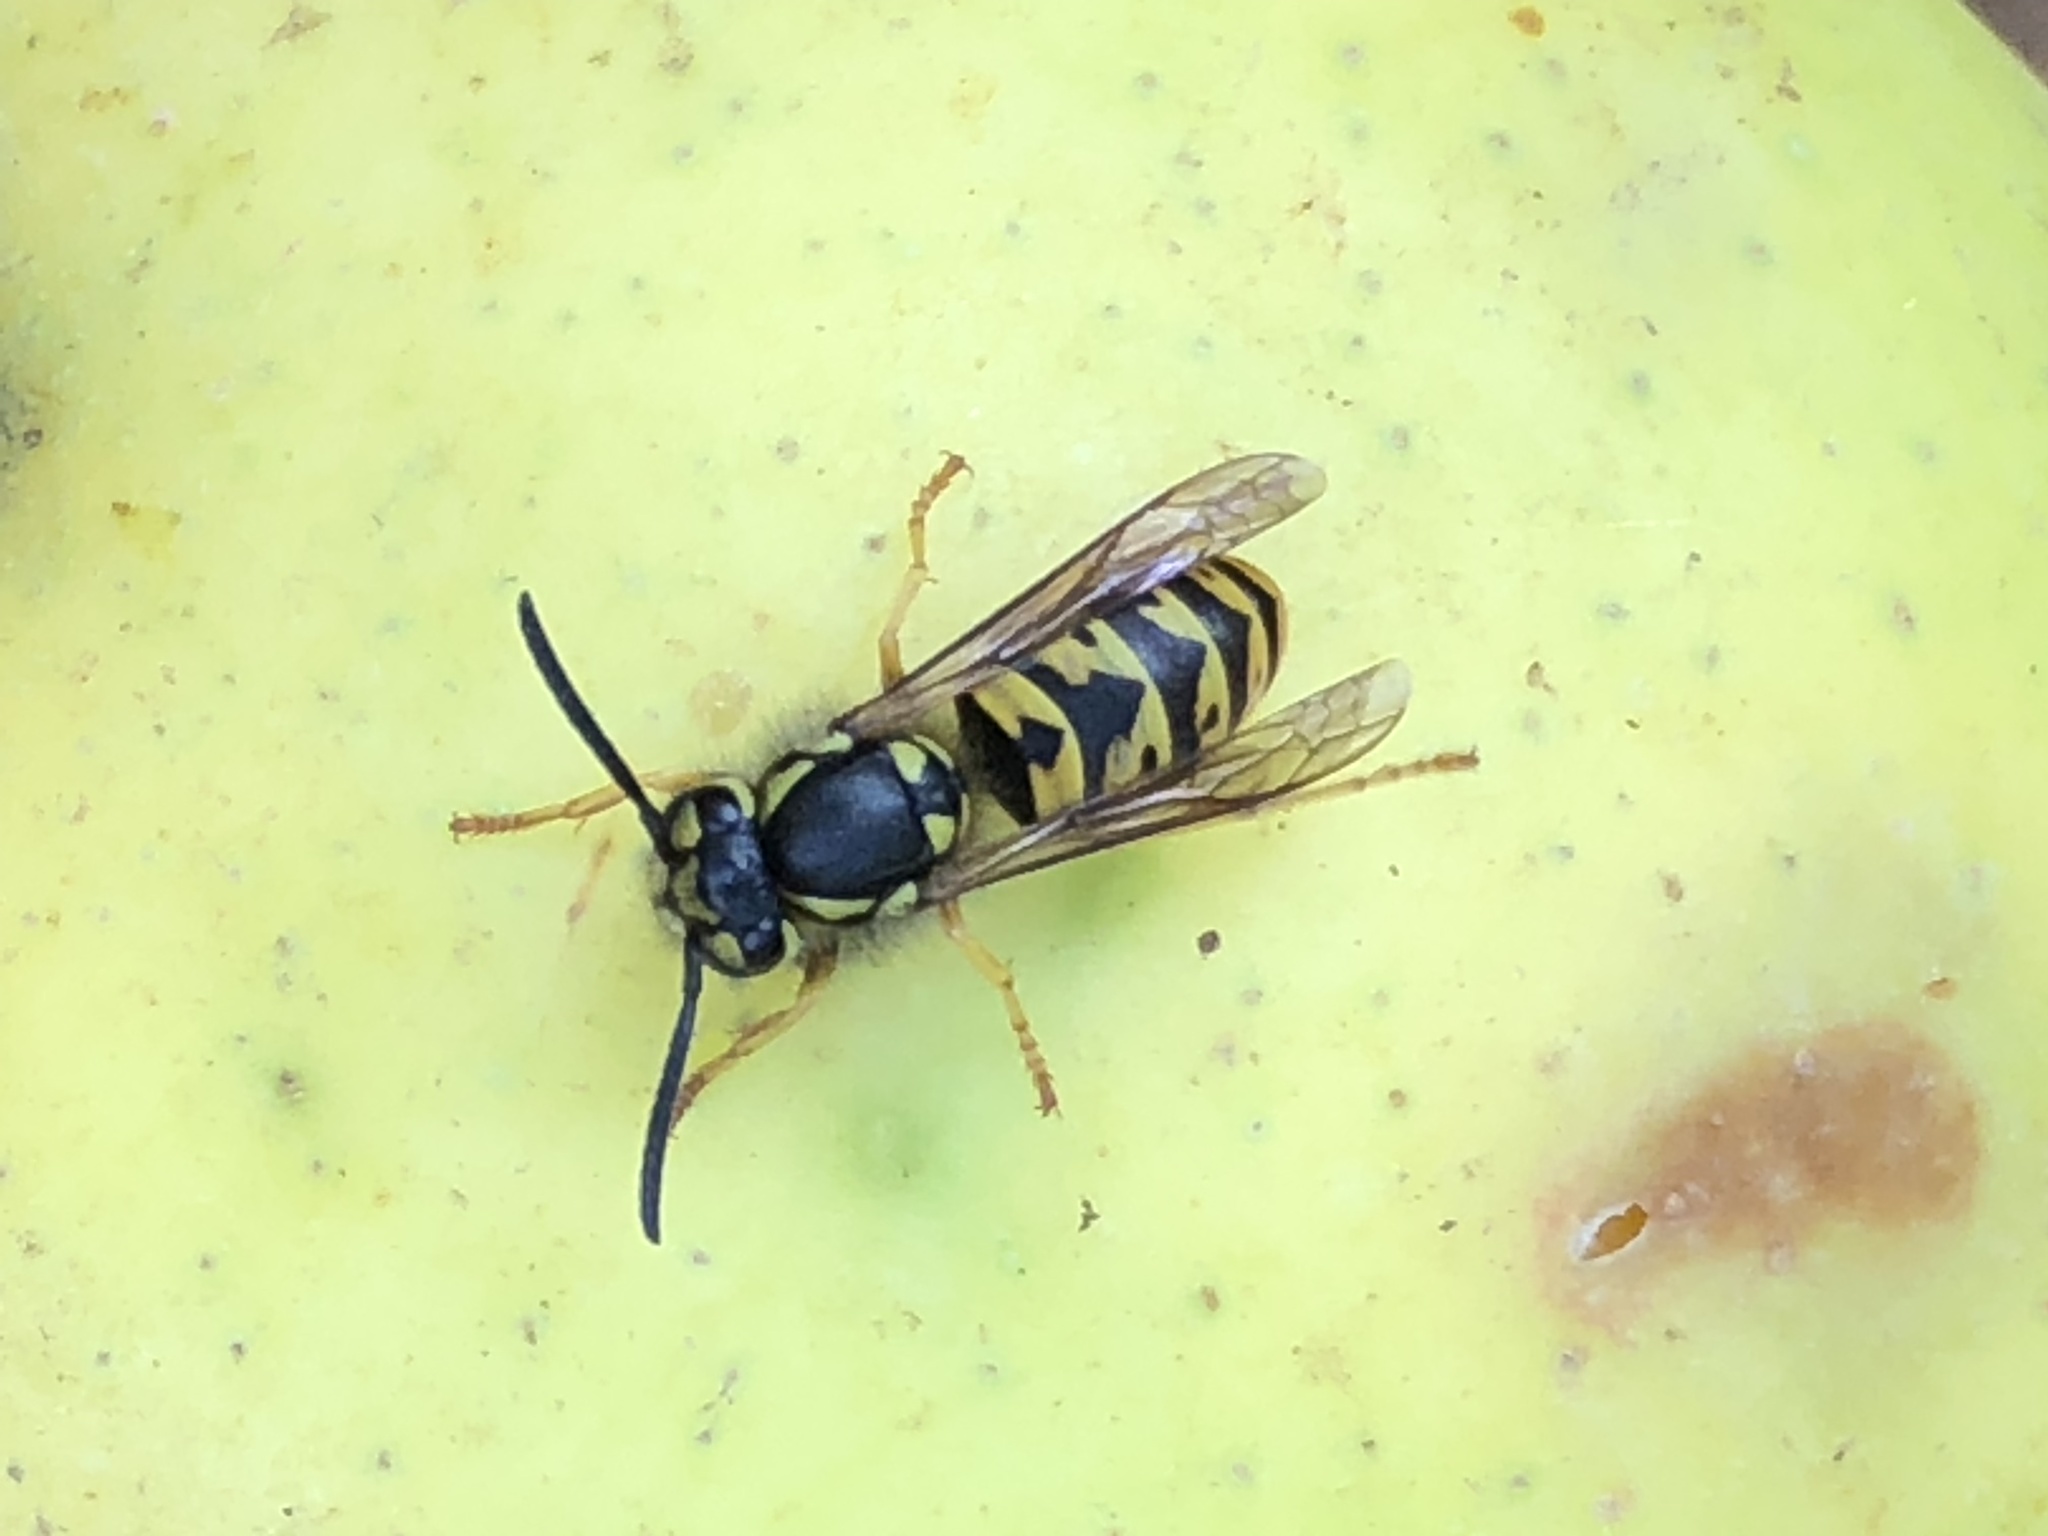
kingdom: Animalia
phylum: Arthropoda
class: Insecta
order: Hymenoptera
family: Vespidae
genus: Vespula
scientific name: Vespula germanica
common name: German wasp
